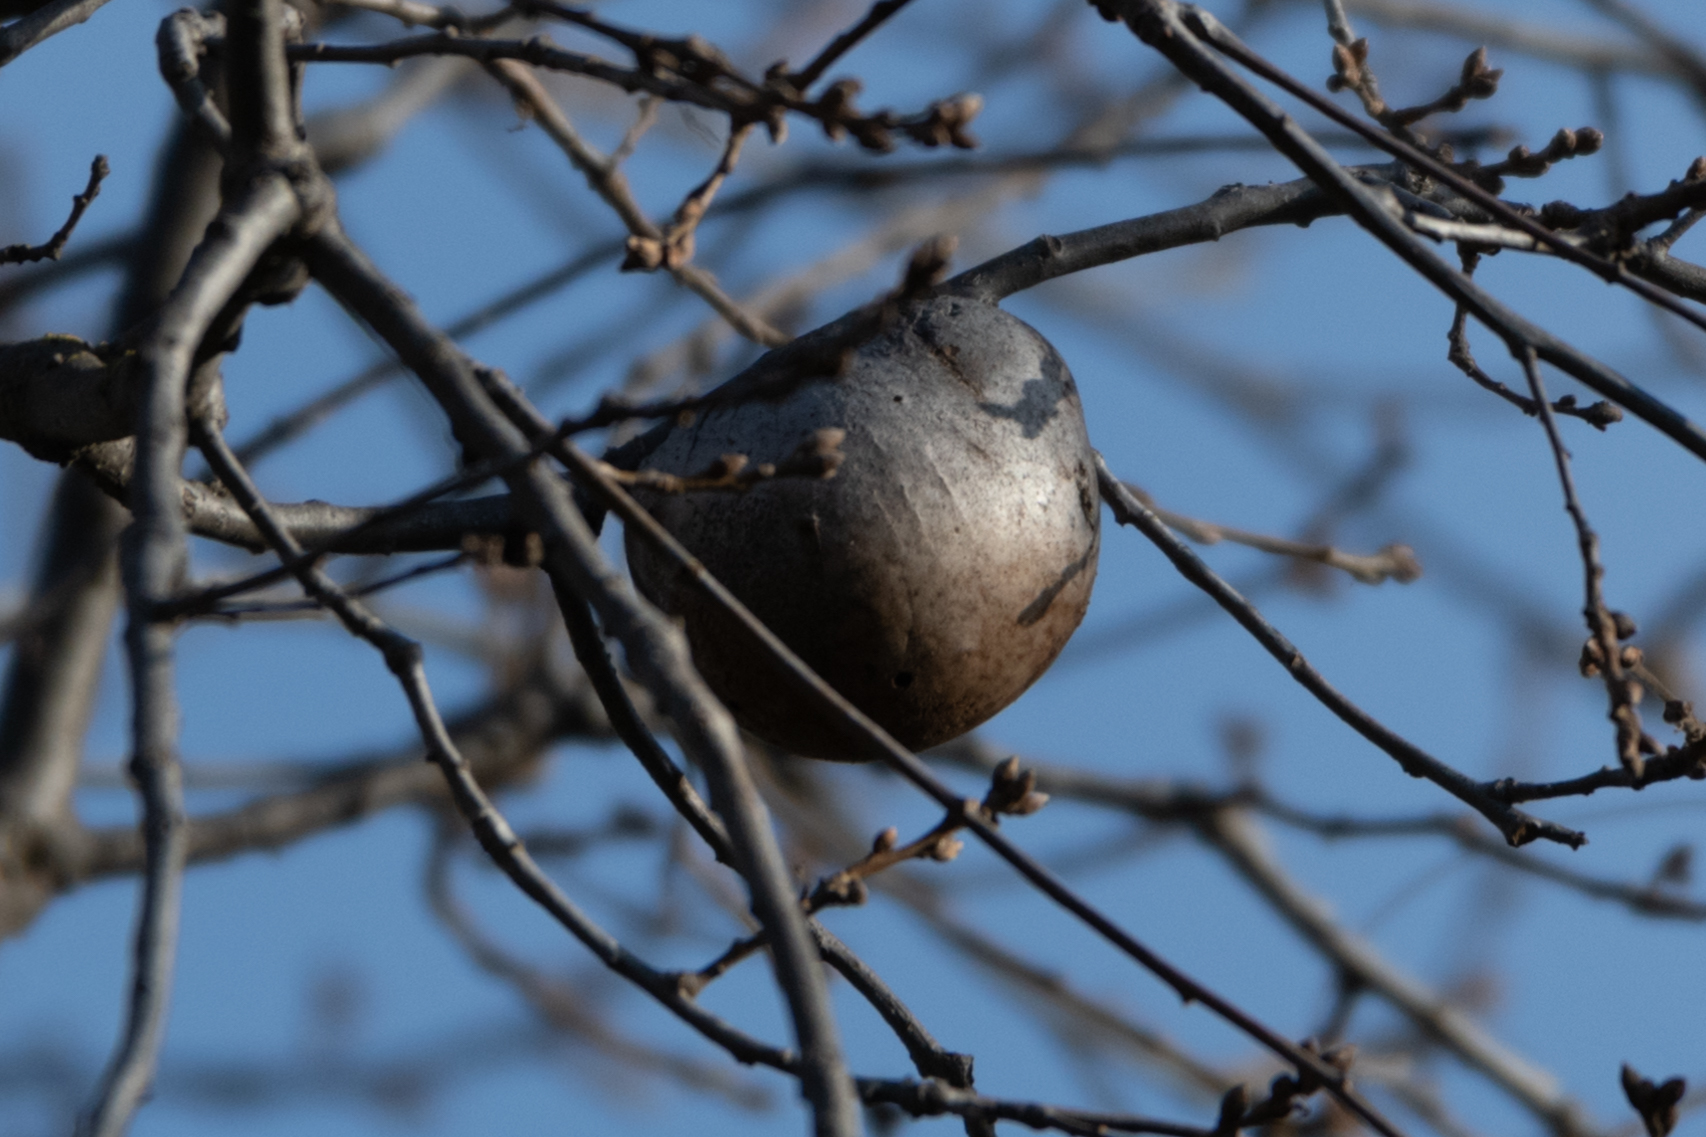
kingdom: Animalia
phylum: Arthropoda
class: Insecta
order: Hymenoptera
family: Cynipidae
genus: Andricus
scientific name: Andricus quercuscalifornicus
